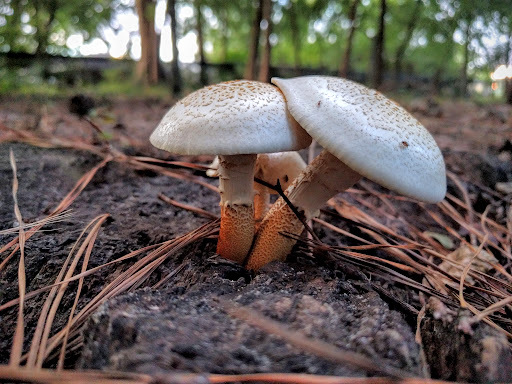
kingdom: Fungi
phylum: Basidiomycota
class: Agaricomycetes
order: Gloeophyllales
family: Gloeophyllaceae
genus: Neolentinus
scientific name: Neolentinus lepideus
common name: Scaly sawgill
